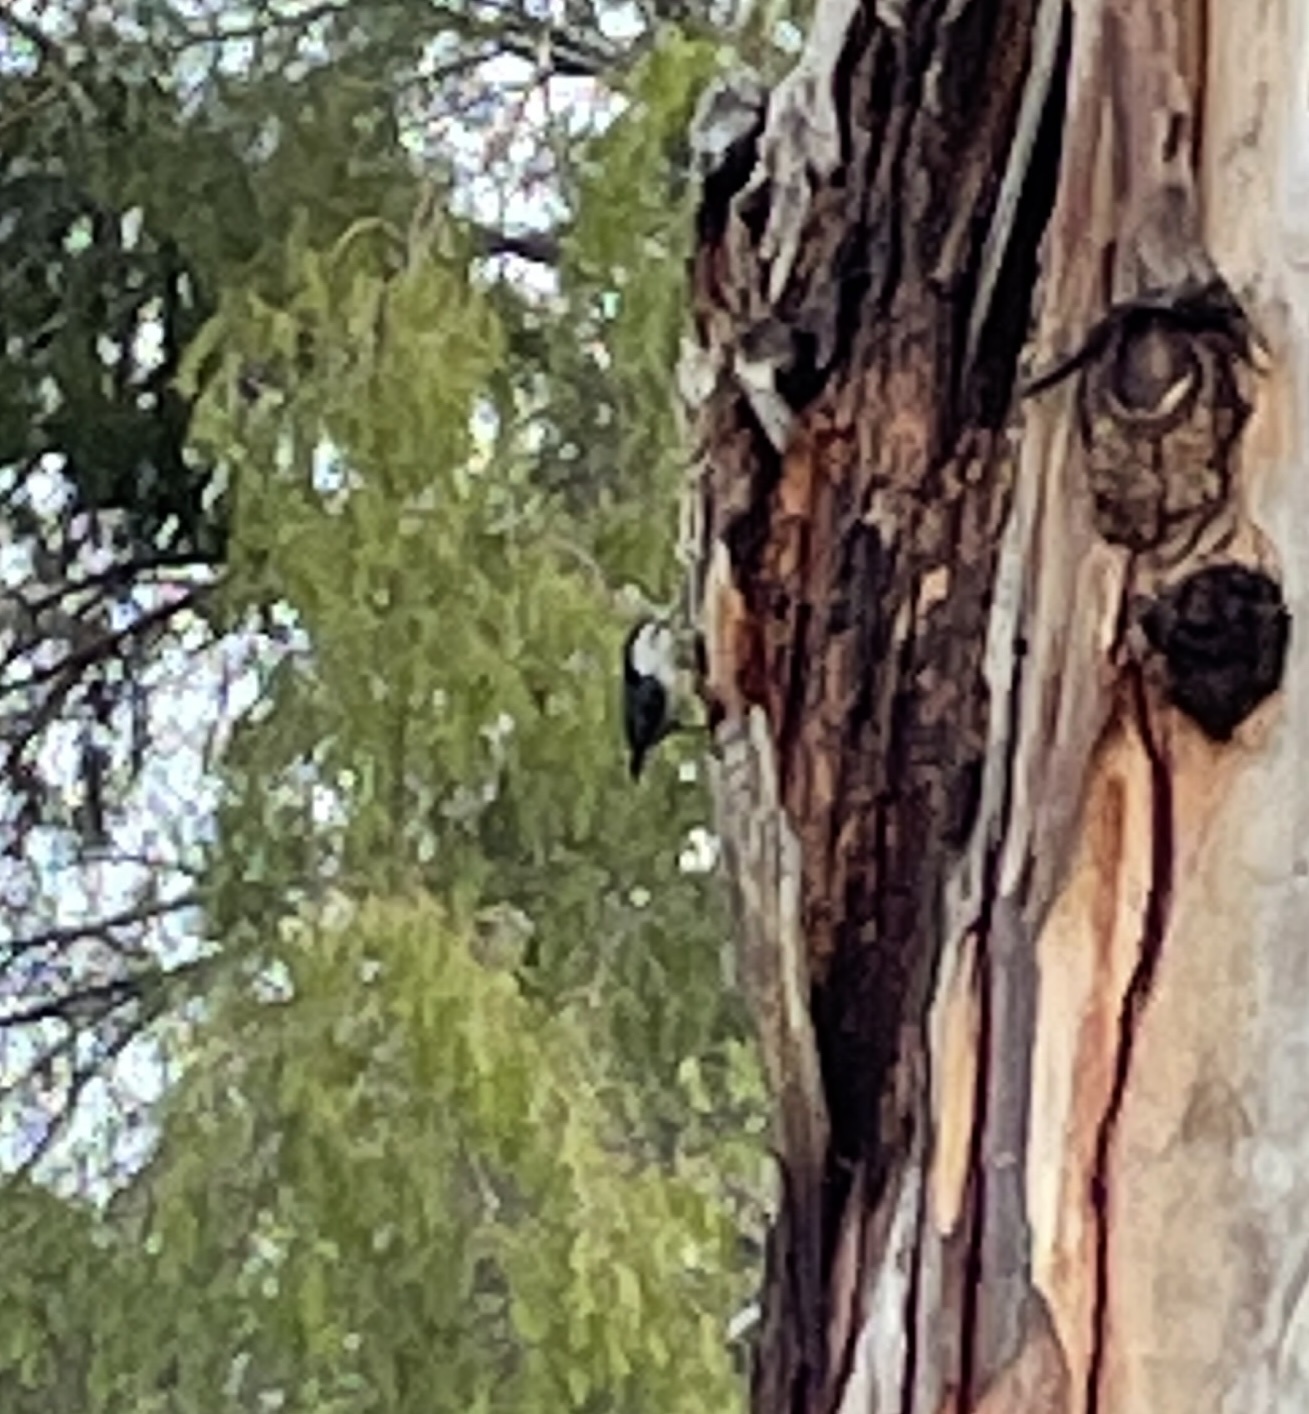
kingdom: Animalia
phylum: Chordata
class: Aves
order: Passeriformes
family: Sittidae
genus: Sitta
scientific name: Sitta carolinensis
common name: White-breasted nuthatch
